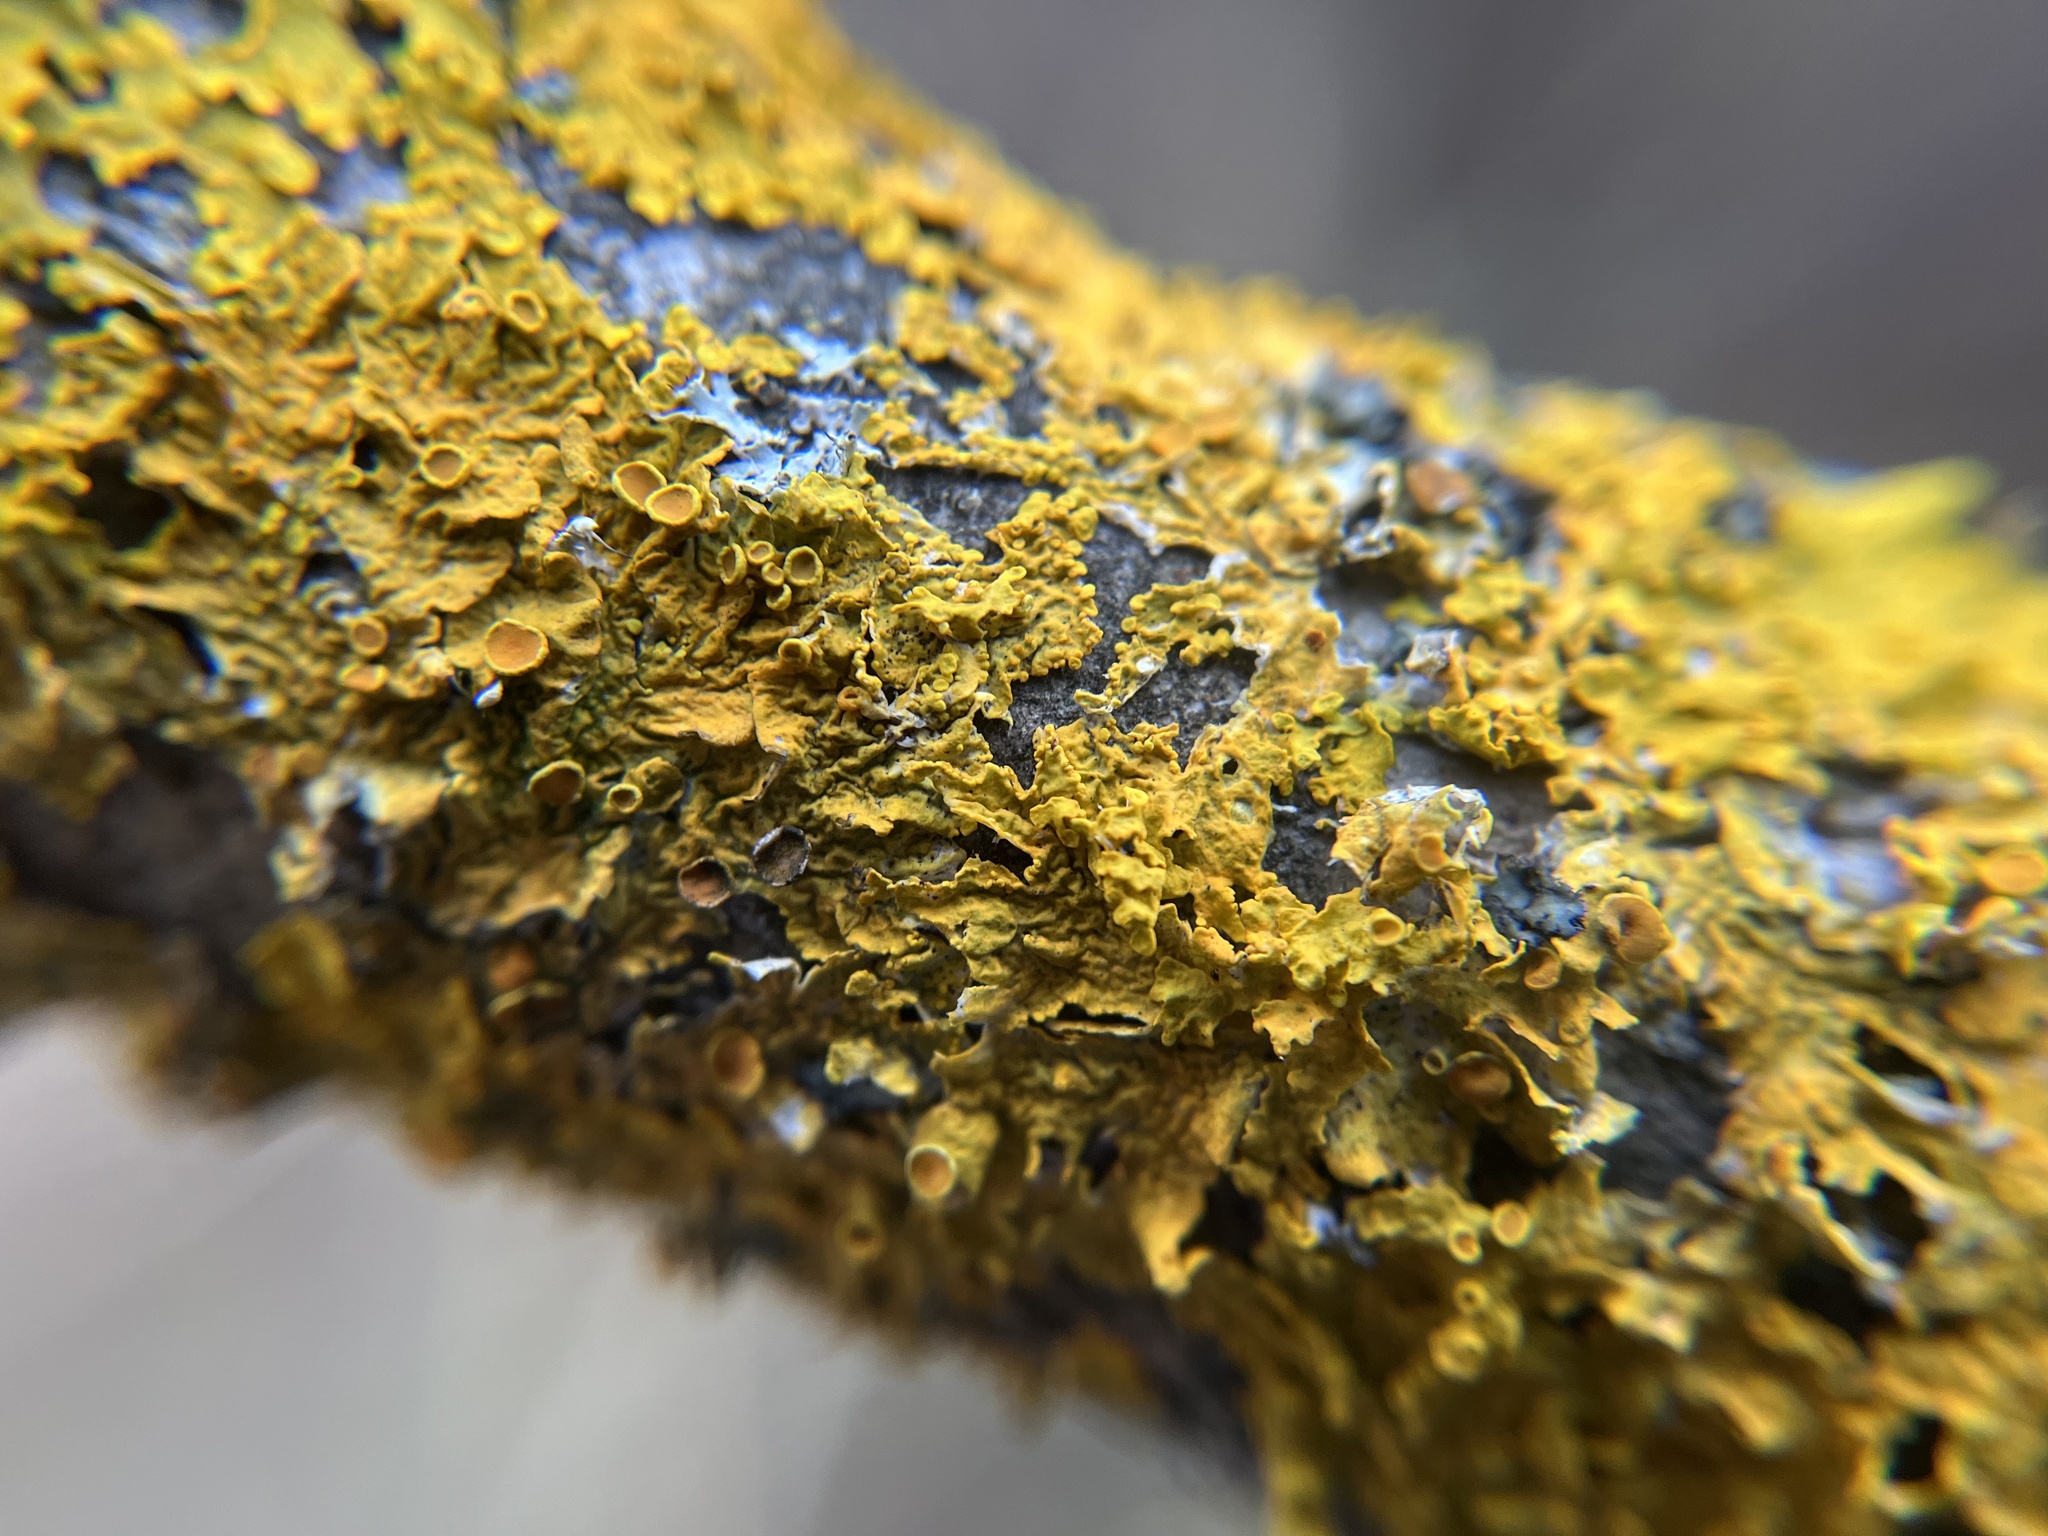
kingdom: Fungi
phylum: Ascomycota
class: Lecanoromycetes
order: Teloschistales
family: Teloschistaceae
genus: Xanthoria
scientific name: Xanthoria parietina
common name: Common orange lichen
